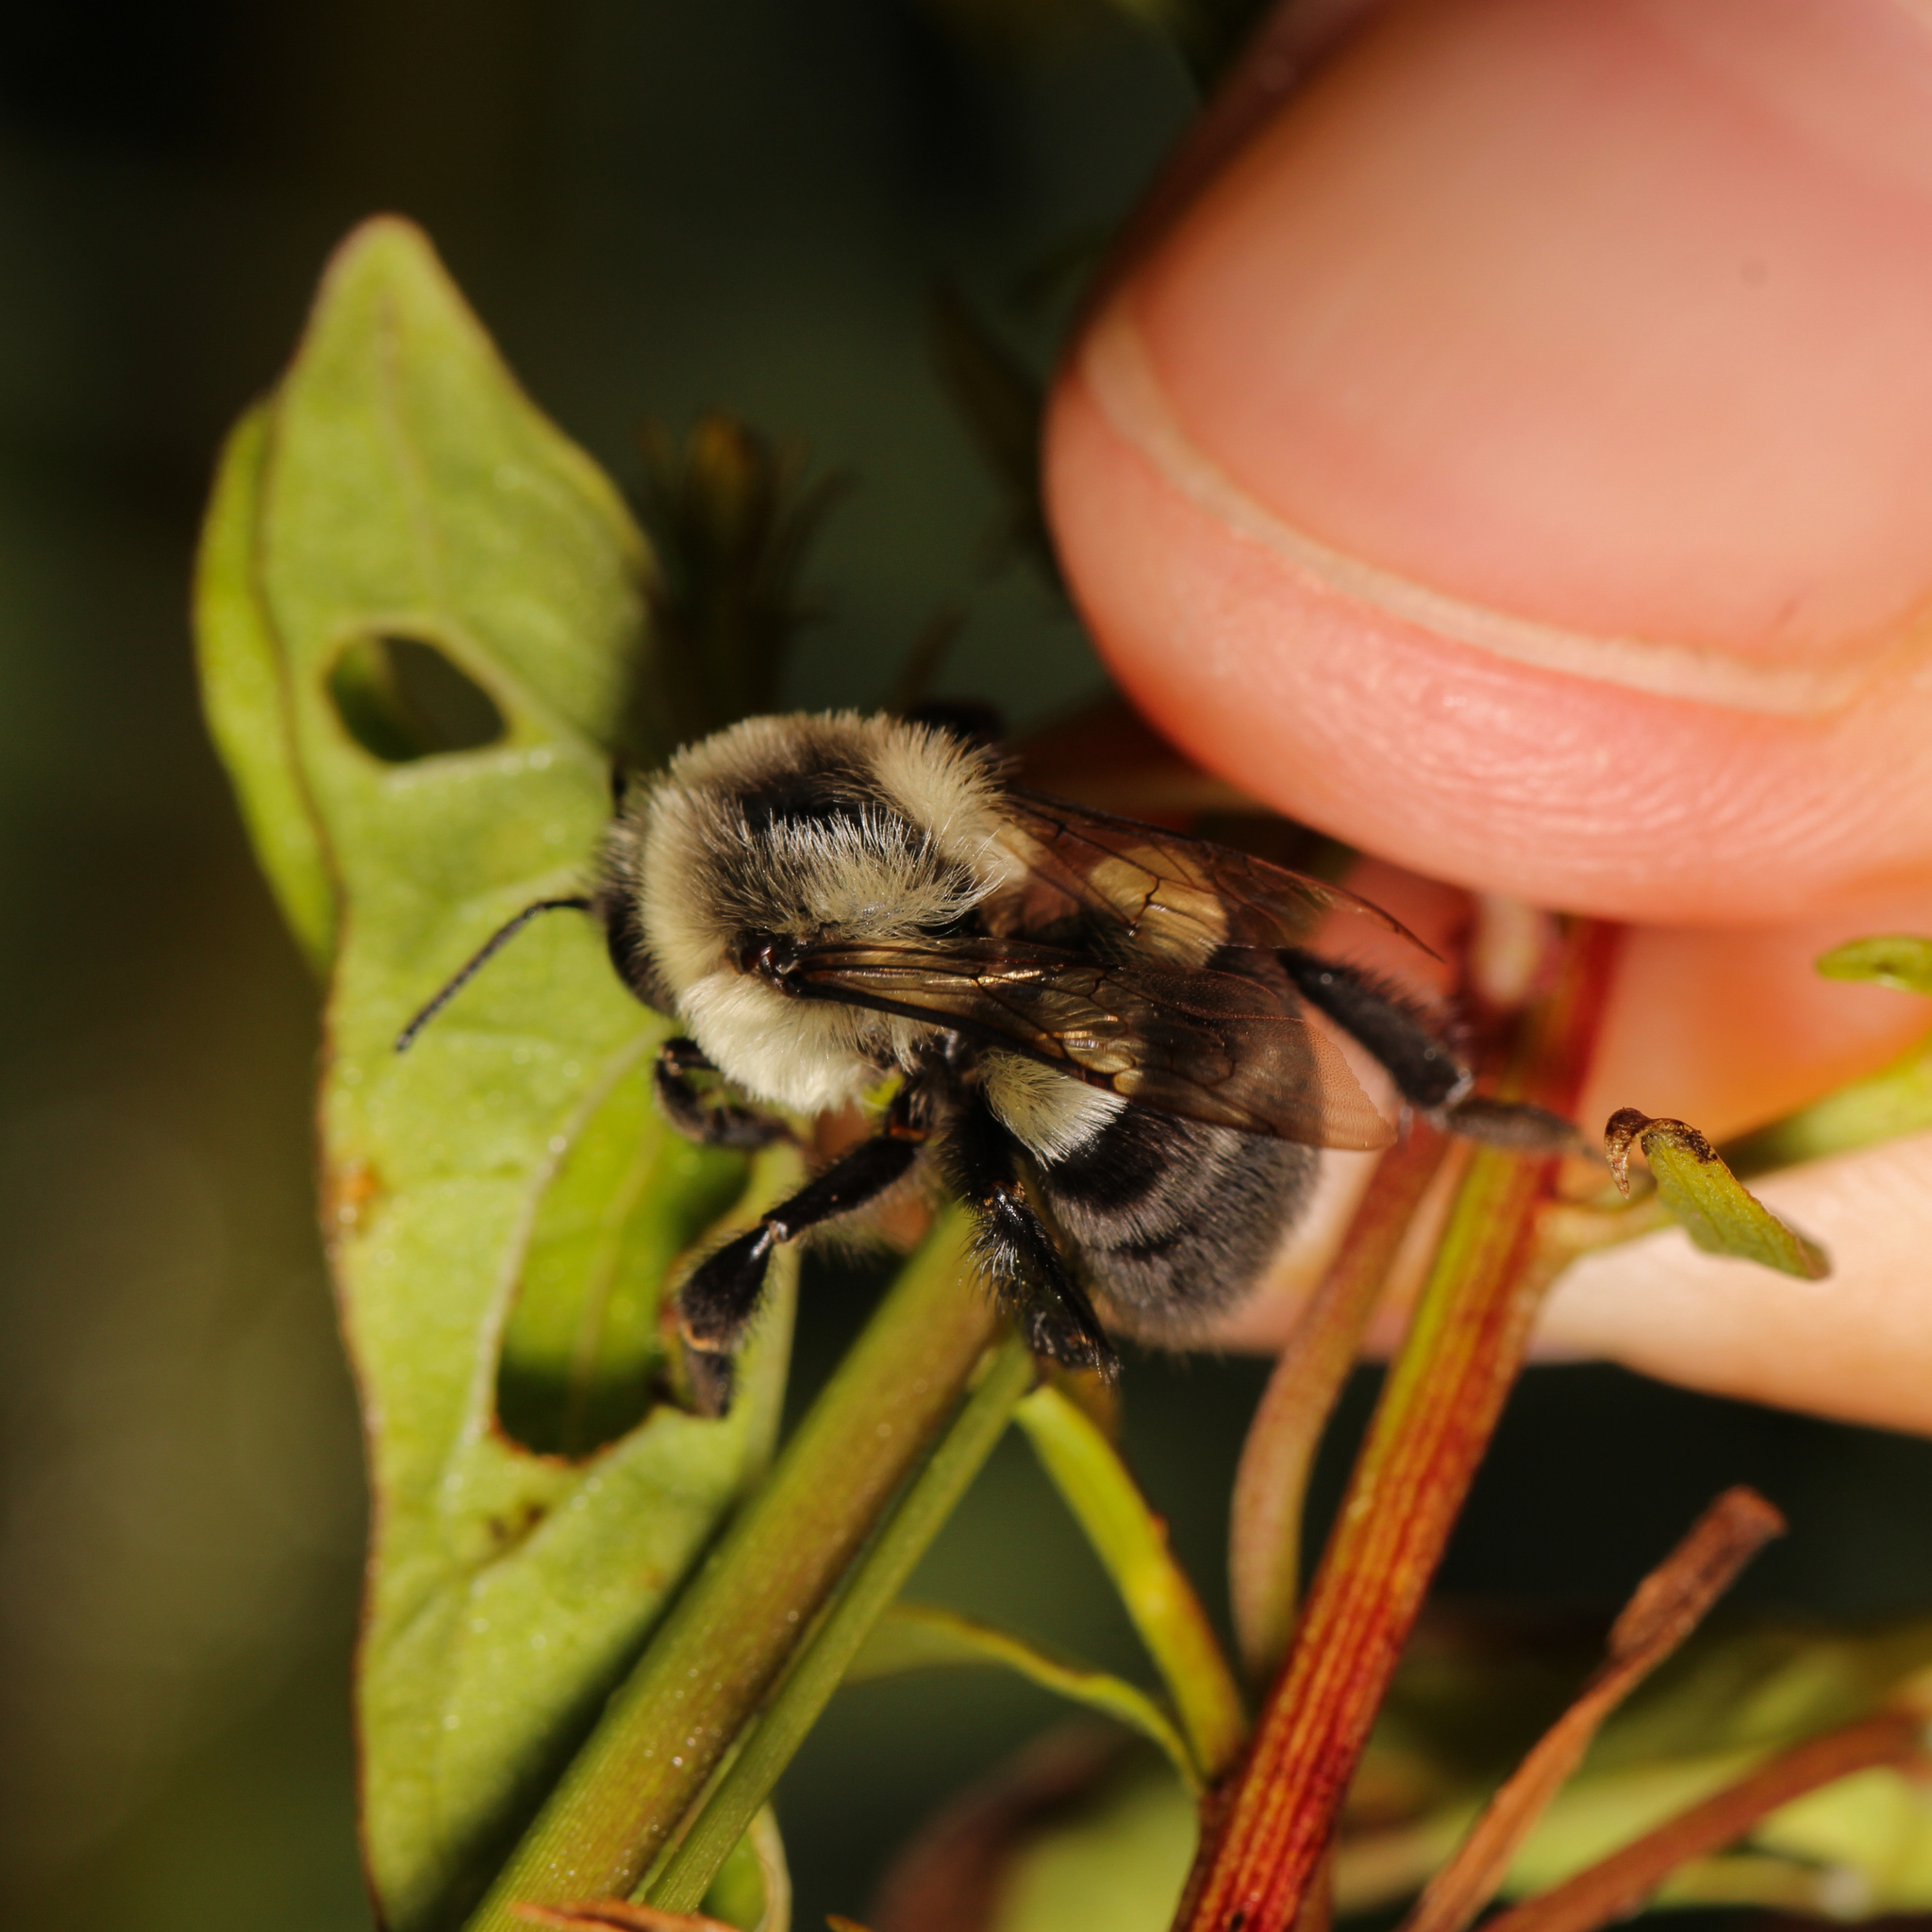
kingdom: Animalia
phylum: Arthropoda
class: Insecta
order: Hymenoptera
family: Apidae
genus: Bombus
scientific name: Bombus impatiens
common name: Common eastern bumble bee
